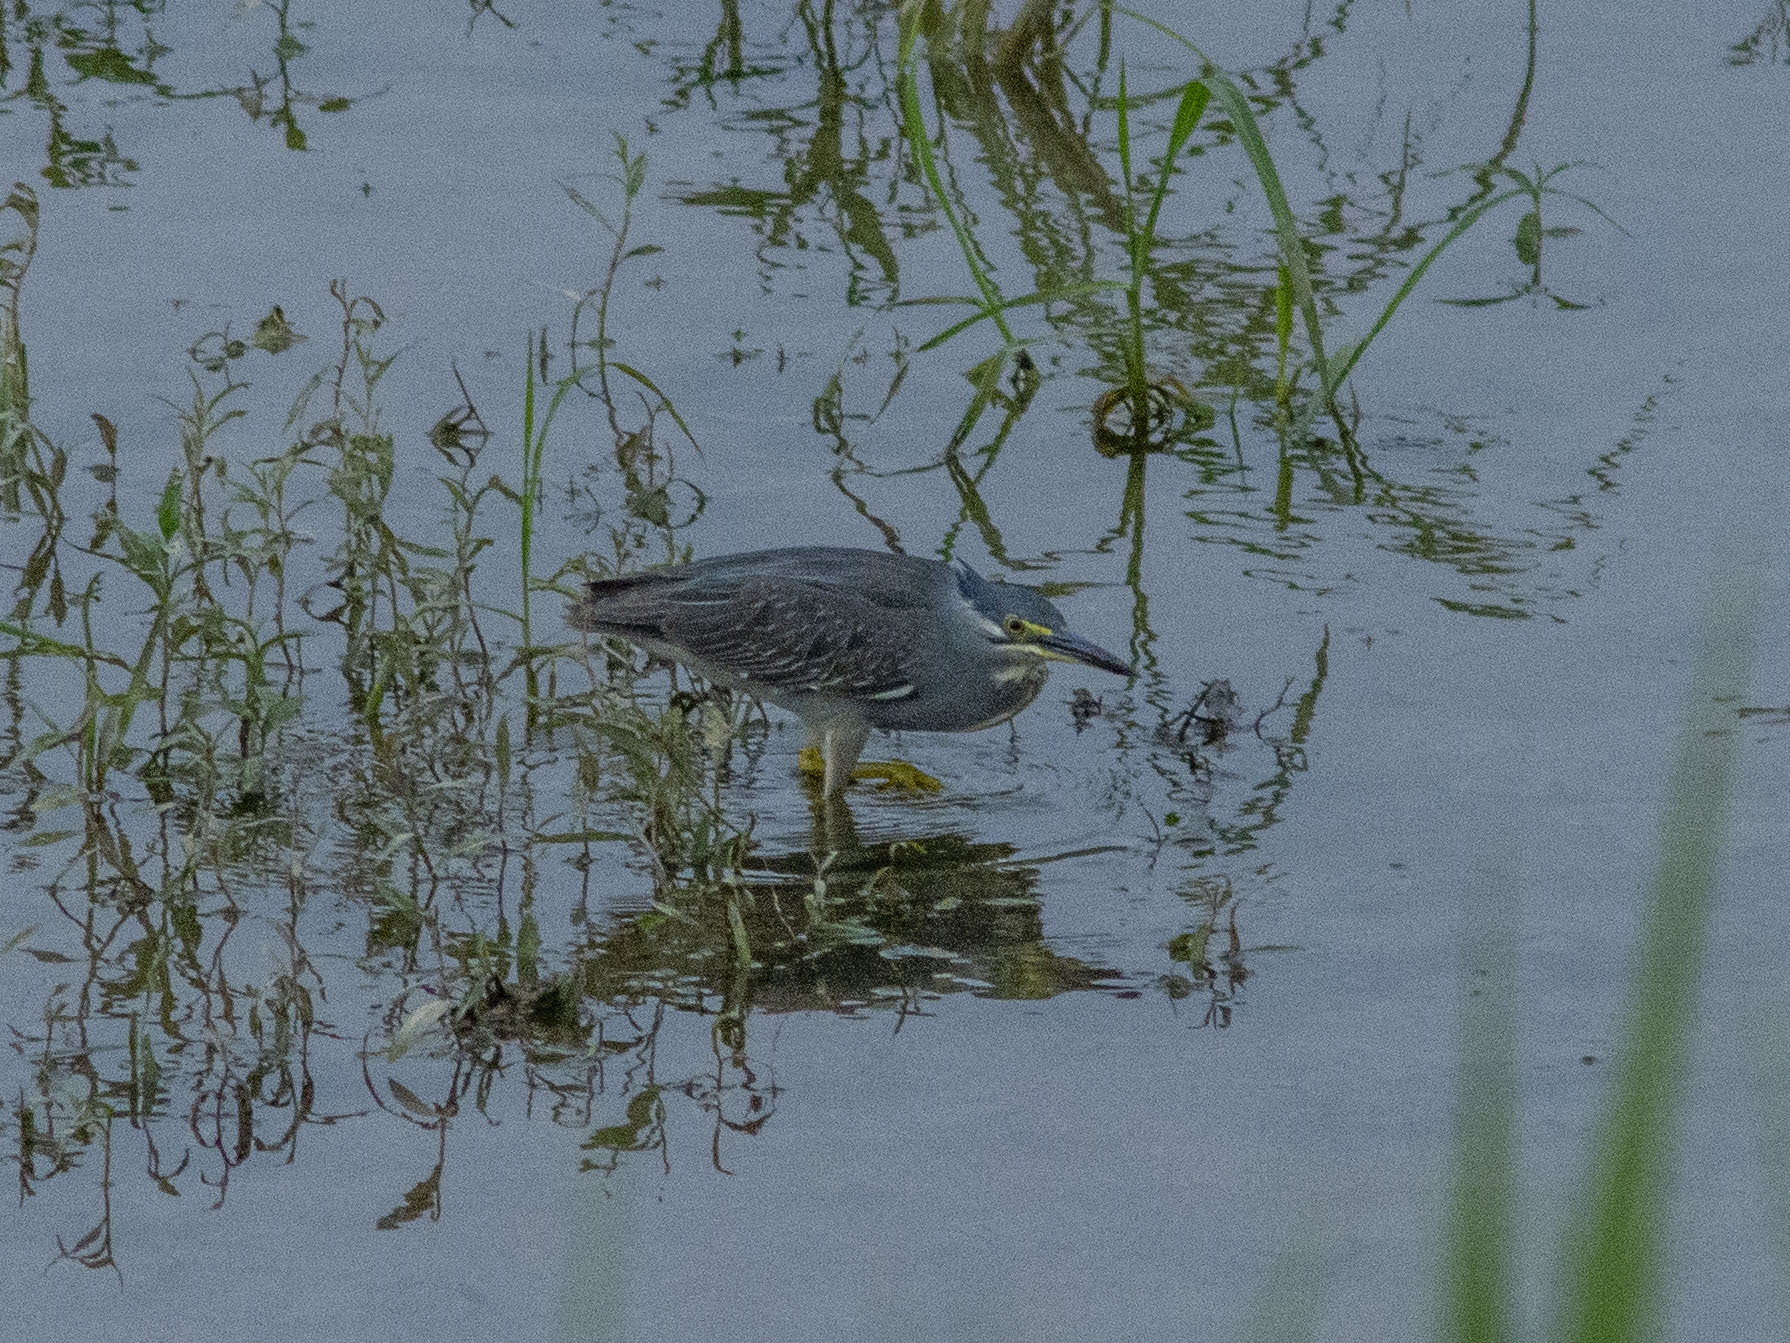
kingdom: Animalia
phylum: Chordata
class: Aves
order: Pelecaniformes
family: Ardeidae
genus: Butorides
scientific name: Butorides striata
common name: Striated heron
